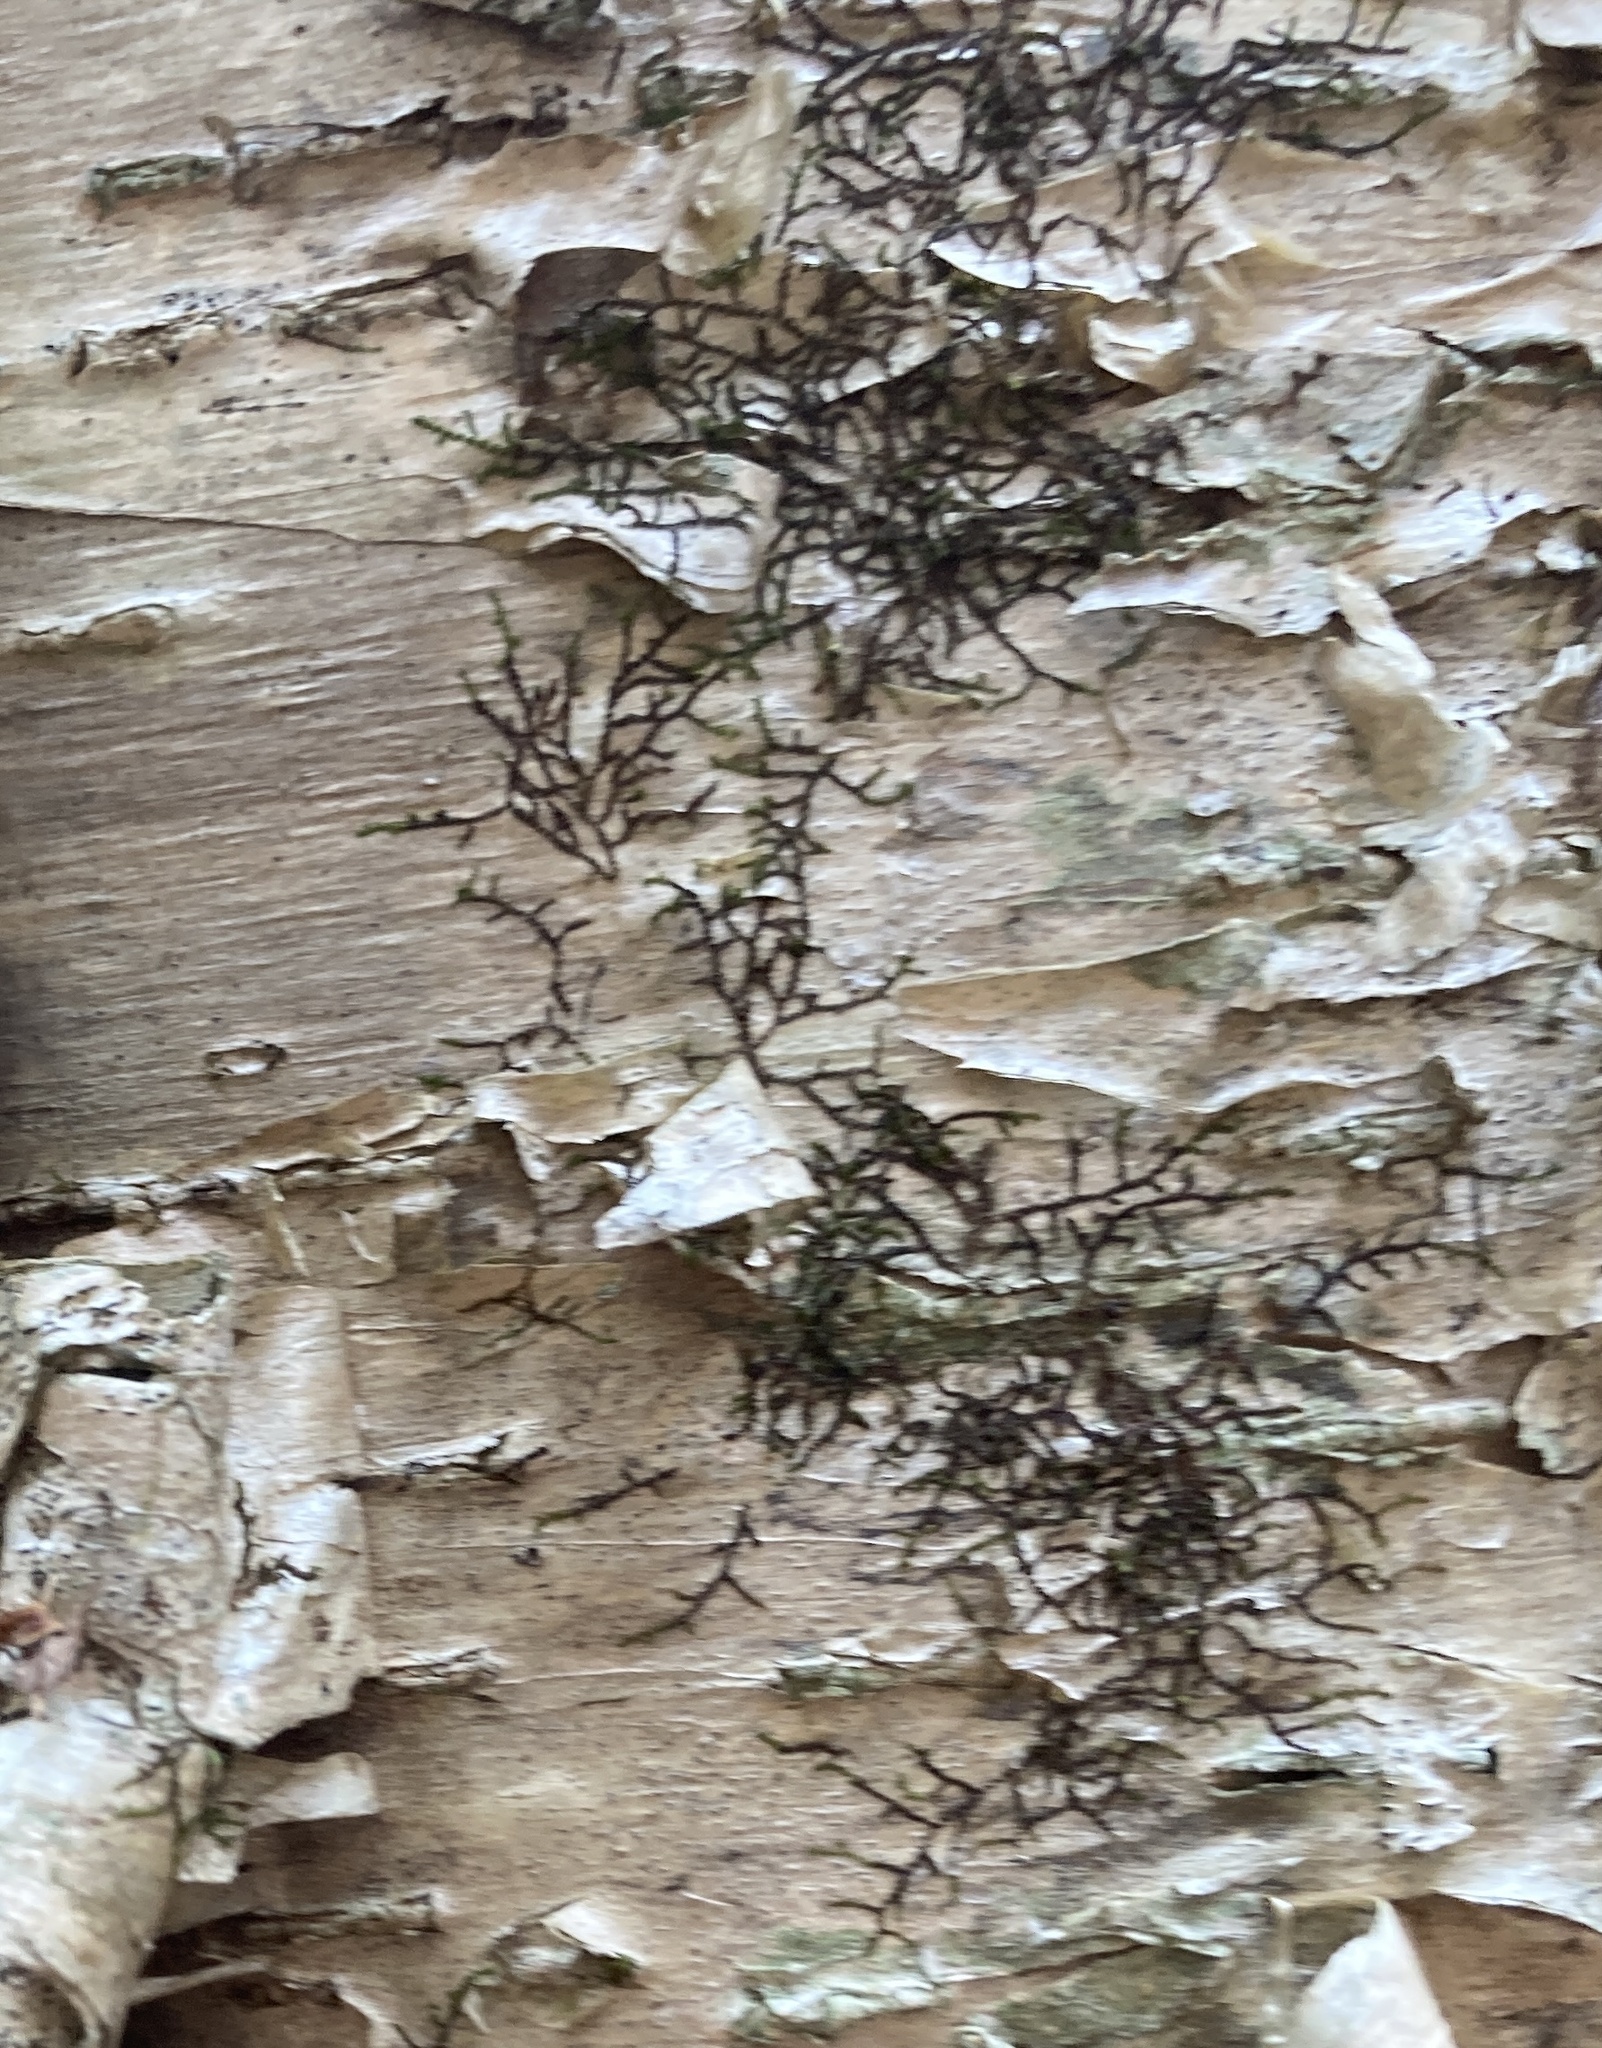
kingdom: Plantae
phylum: Marchantiophyta
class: Jungermanniopsida
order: Porellales
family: Frullaniaceae
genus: Frullania
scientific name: Frullania eboracensis
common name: New york scalewort
